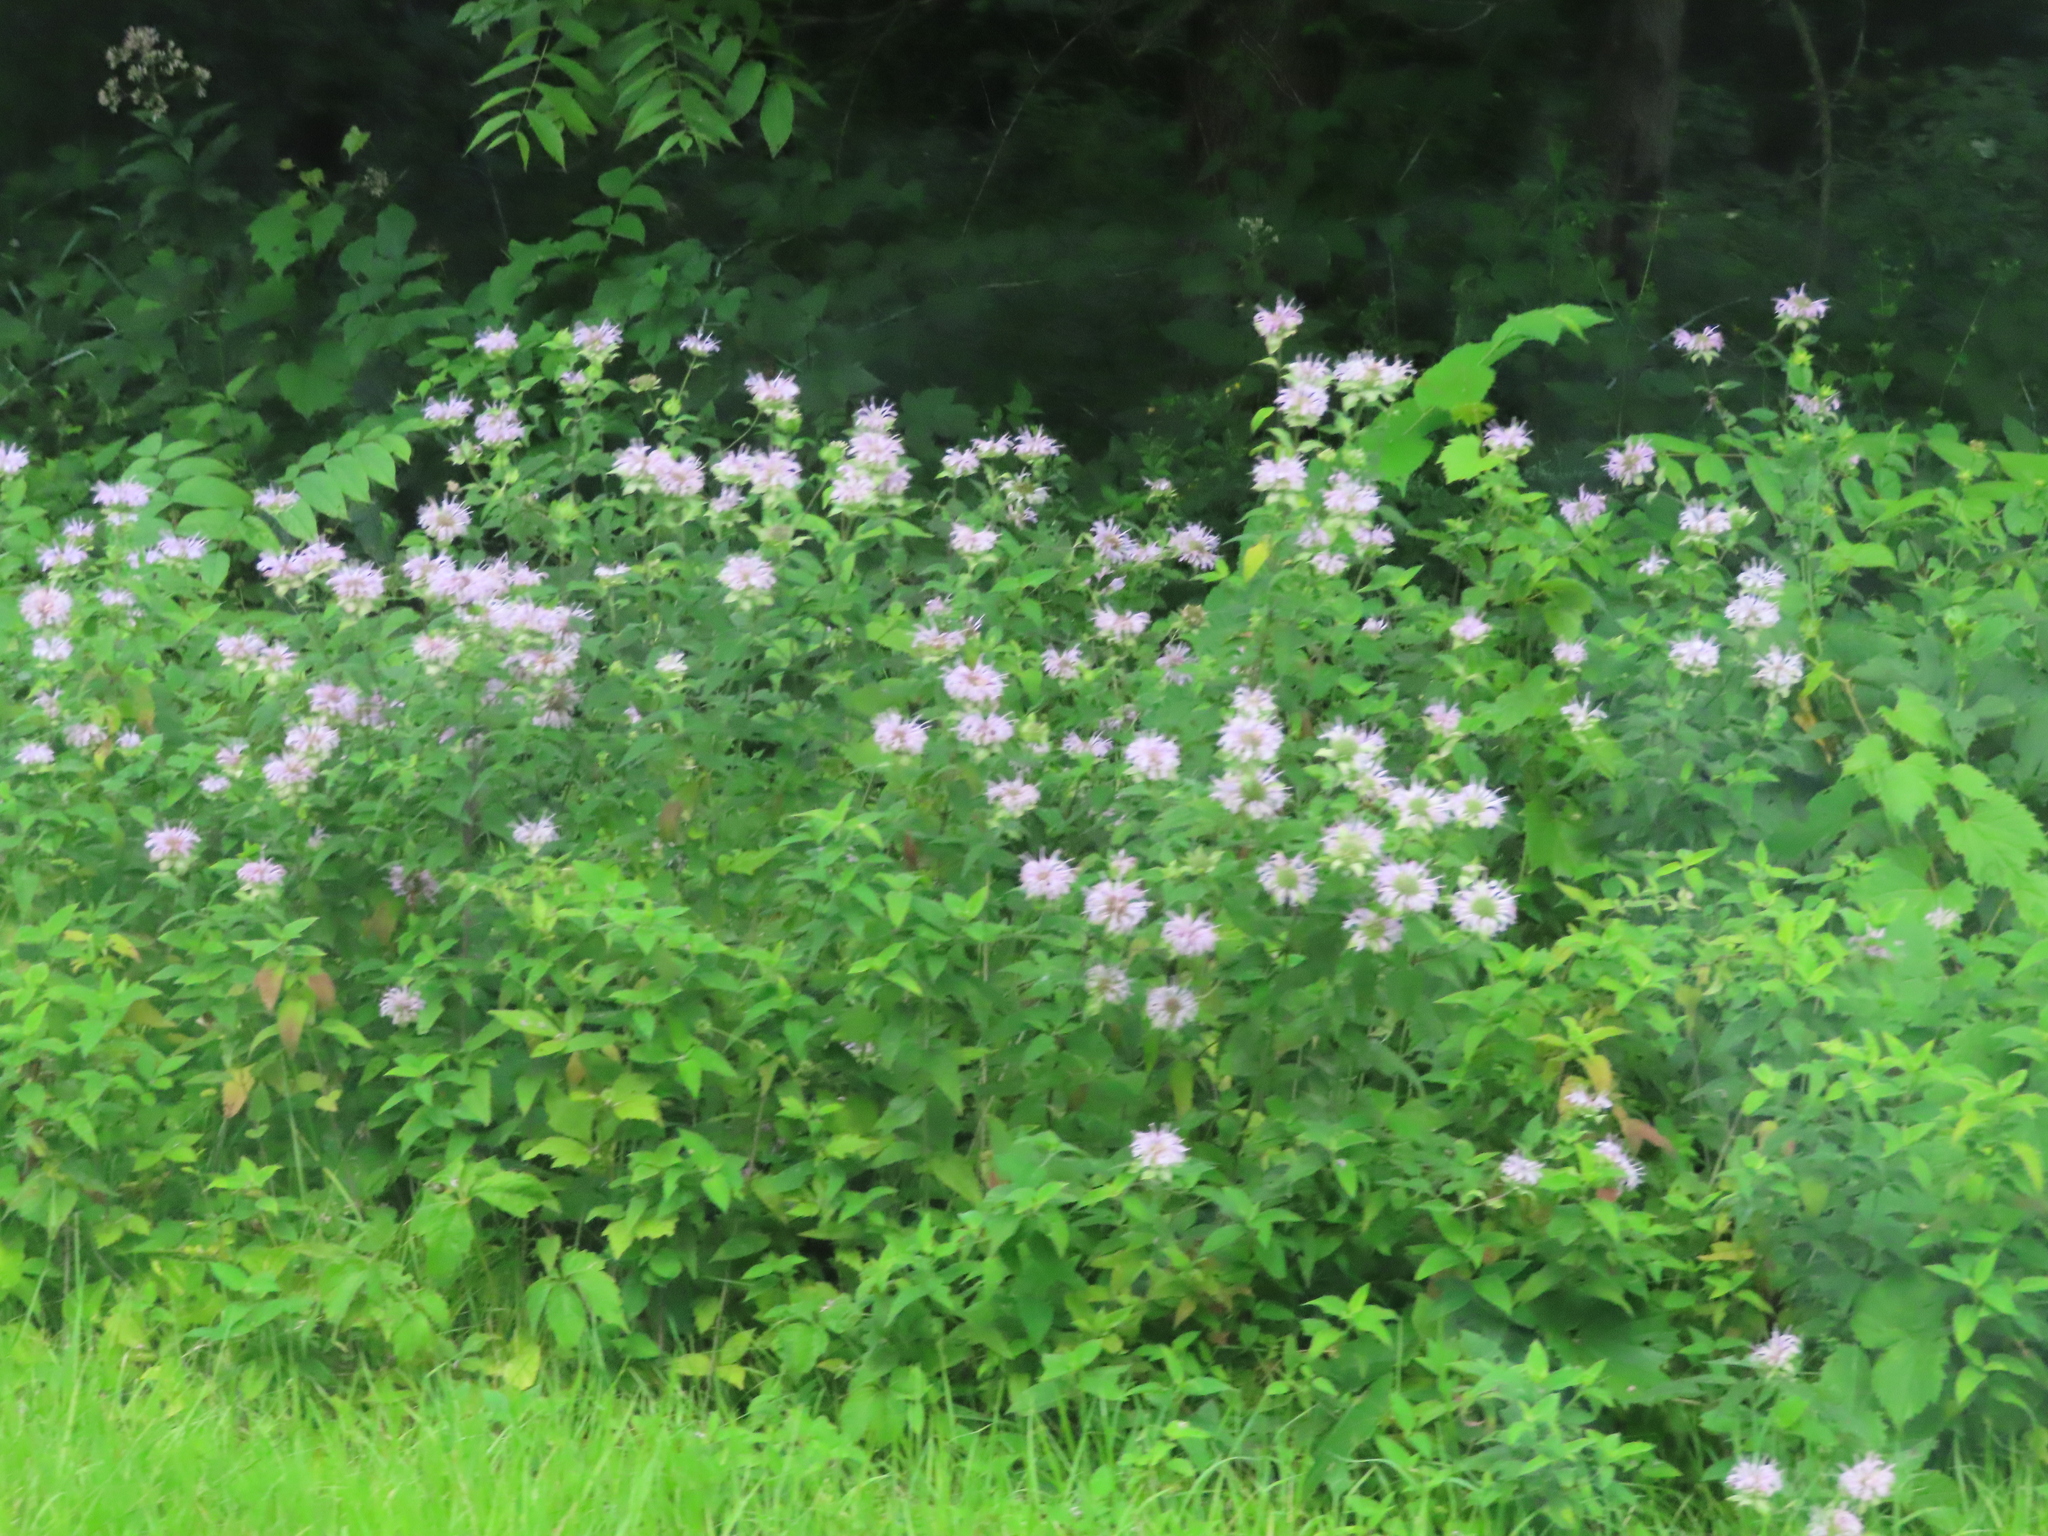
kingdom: Plantae
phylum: Tracheophyta
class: Magnoliopsida
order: Lamiales
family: Lamiaceae
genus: Monarda
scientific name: Monarda fistulosa
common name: Purple beebalm
